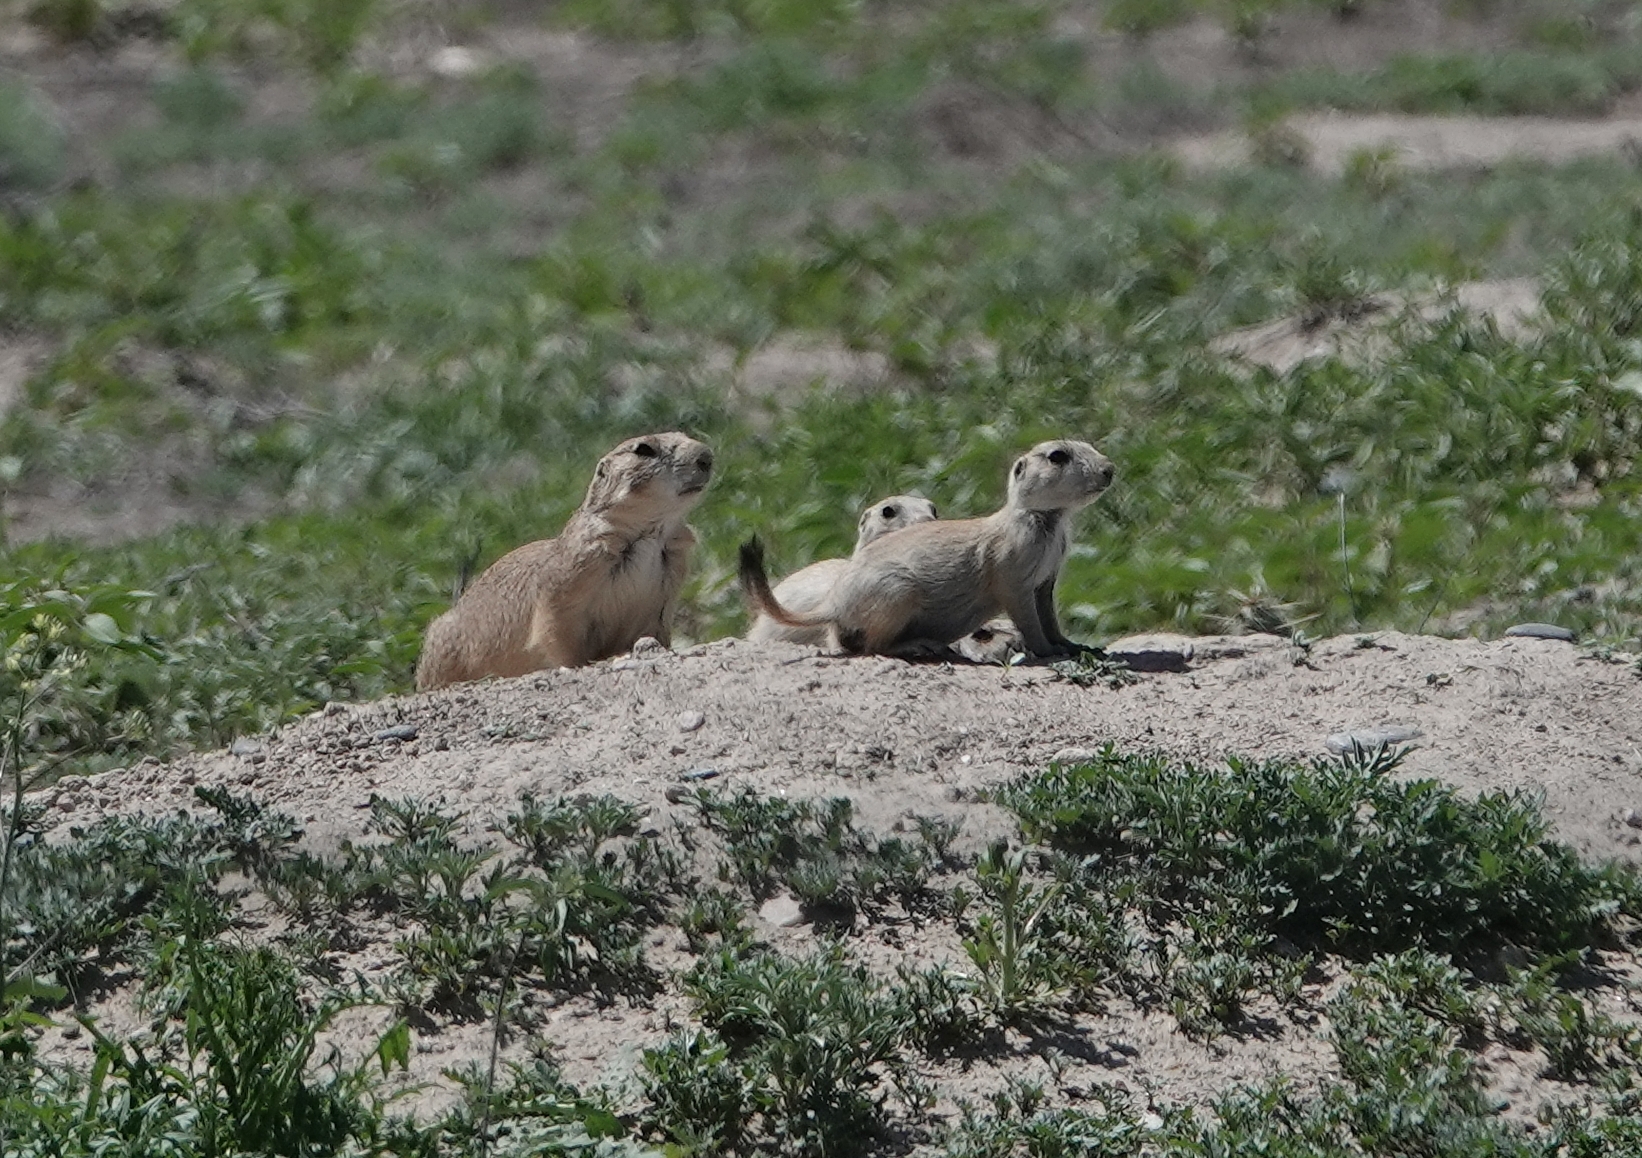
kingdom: Animalia
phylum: Chordata
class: Mammalia
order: Rodentia
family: Sciuridae
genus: Cynomys
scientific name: Cynomys ludovicianus
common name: Black-tailed prairie dog
